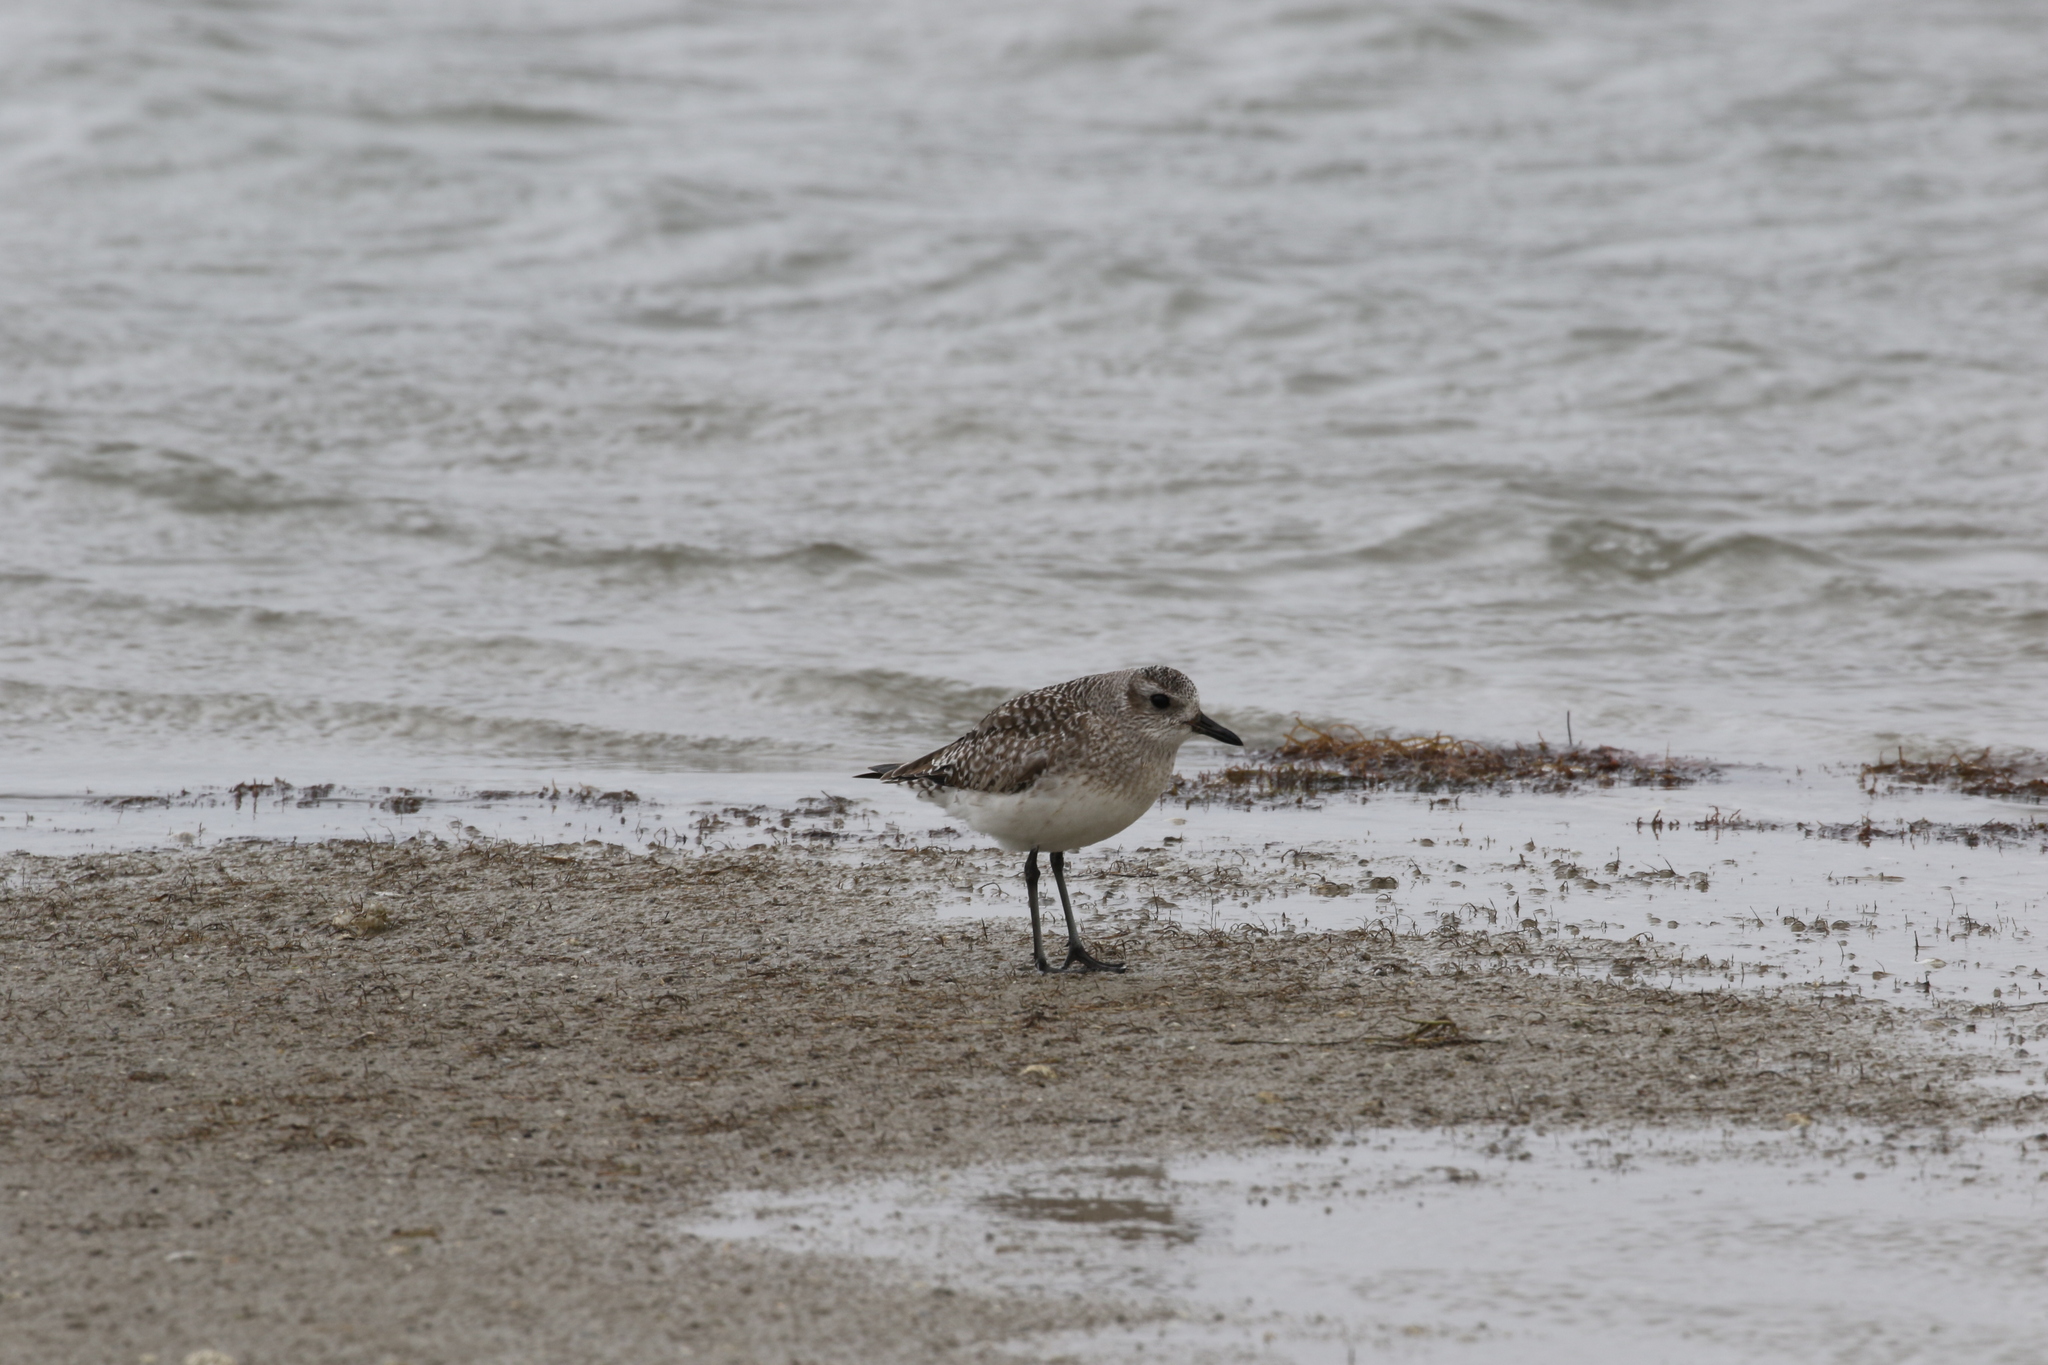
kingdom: Animalia
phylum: Chordata
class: Aves
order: Charadriiformes
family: Charadriidae
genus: Pluvialis
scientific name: Pluvialis squatarola
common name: Grey plover
